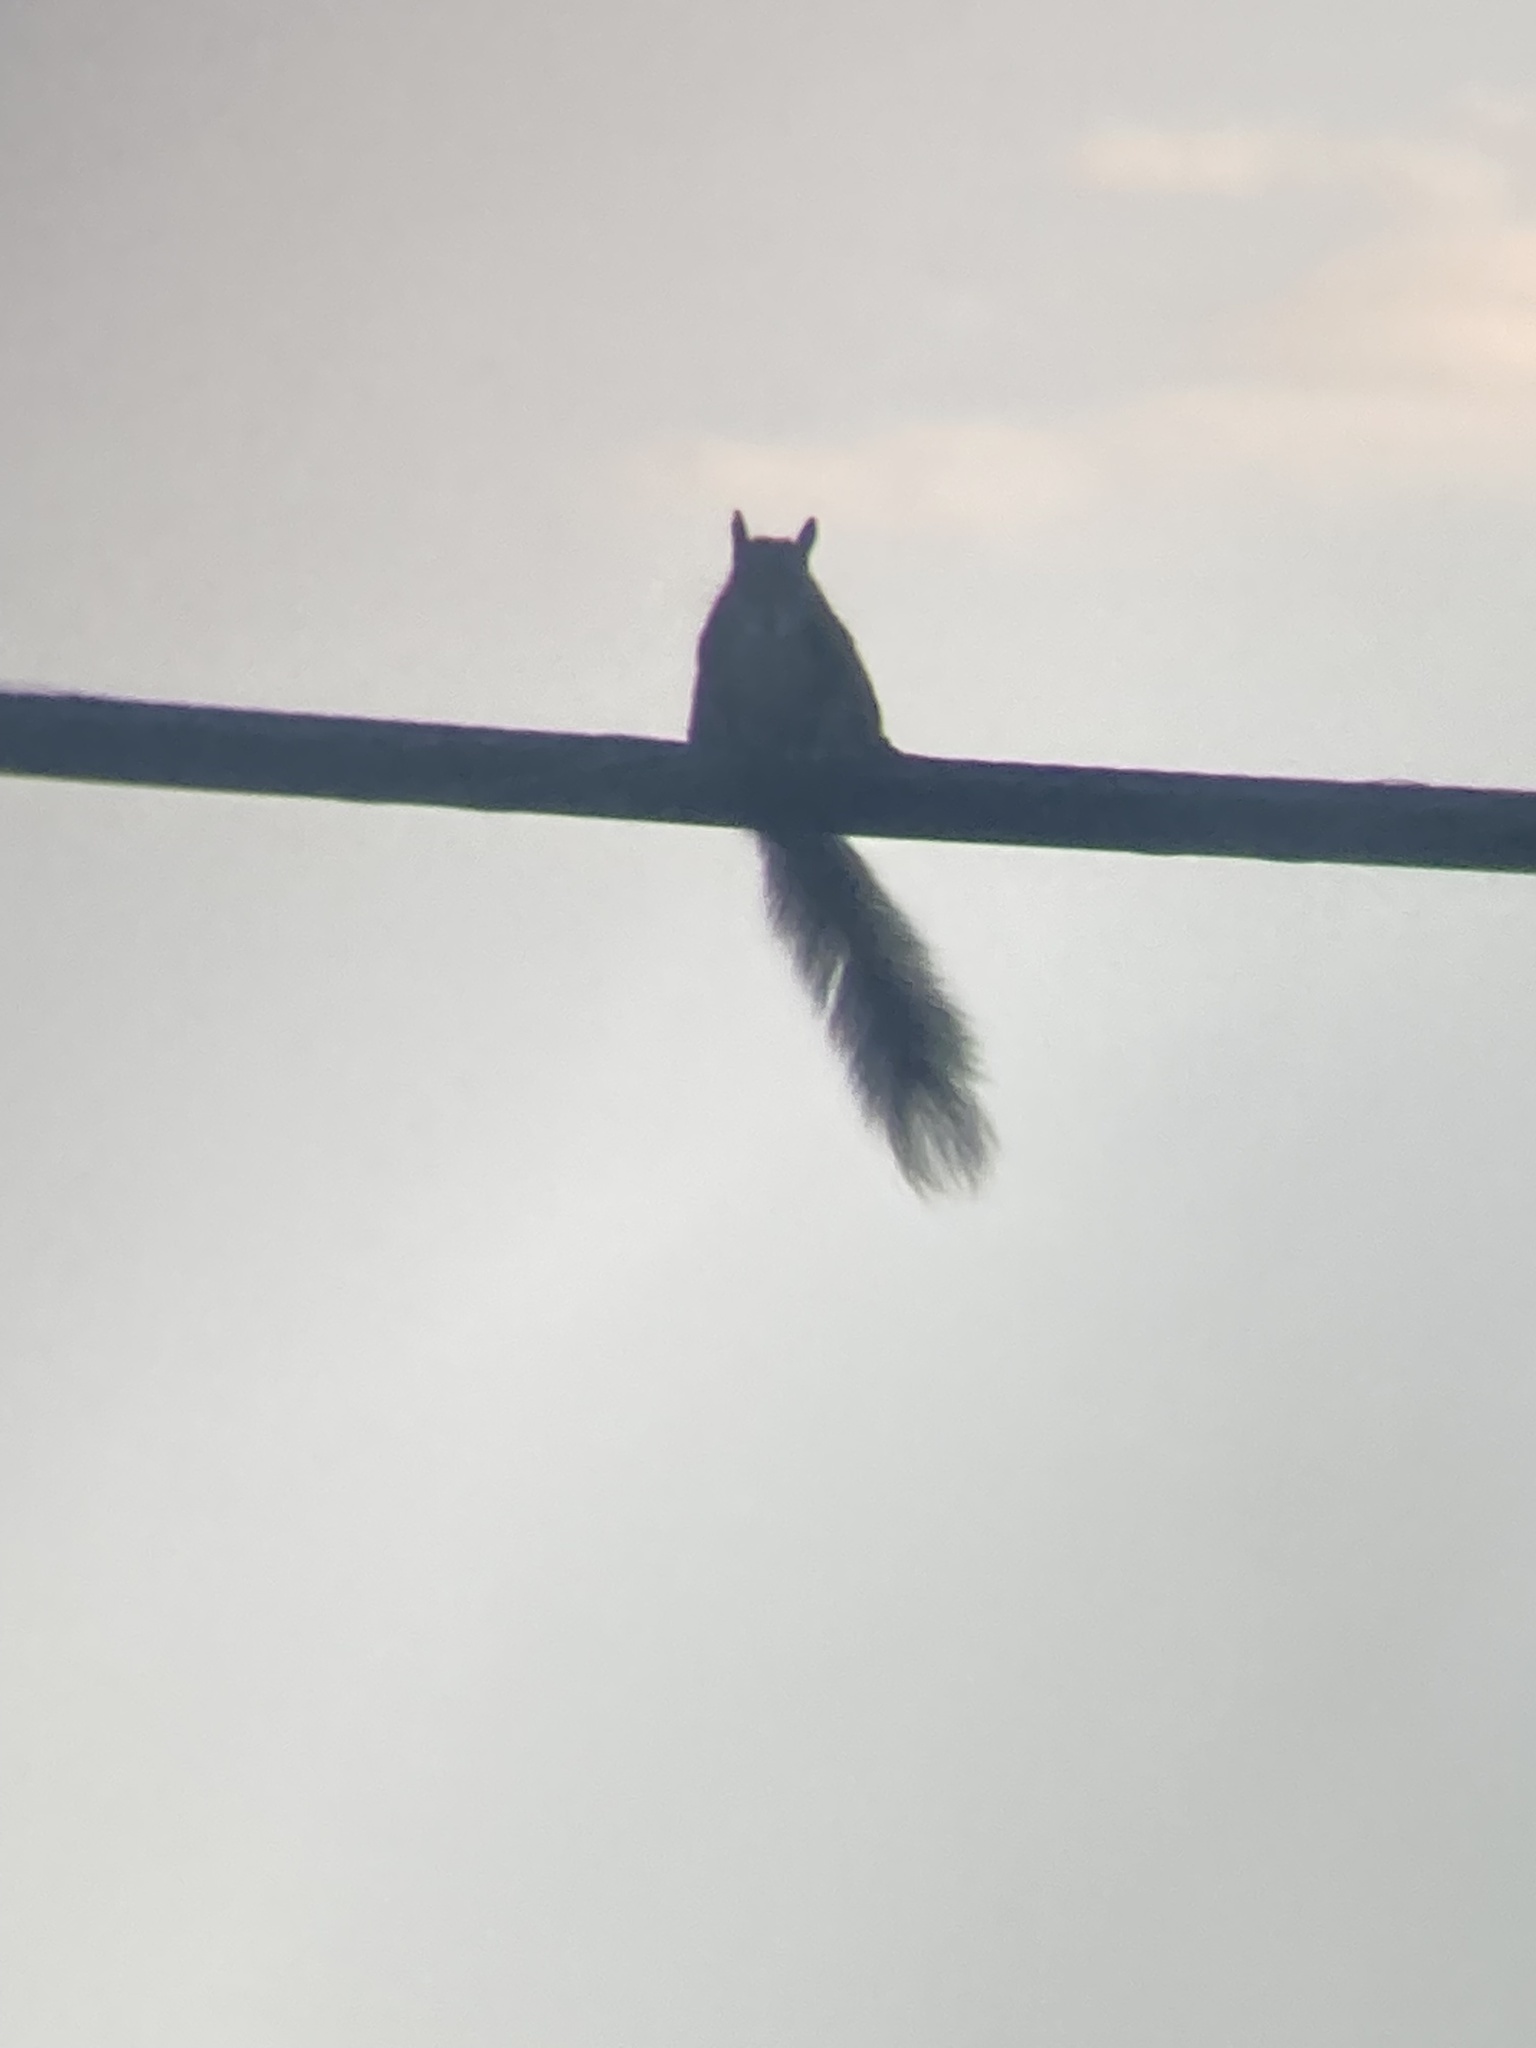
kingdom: Animalia
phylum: Chordata
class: Mammalia
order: Rodentia
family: Sciuridae
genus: Sciurus
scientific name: Sciurus carolinensis
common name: Eastern gray squirrel
